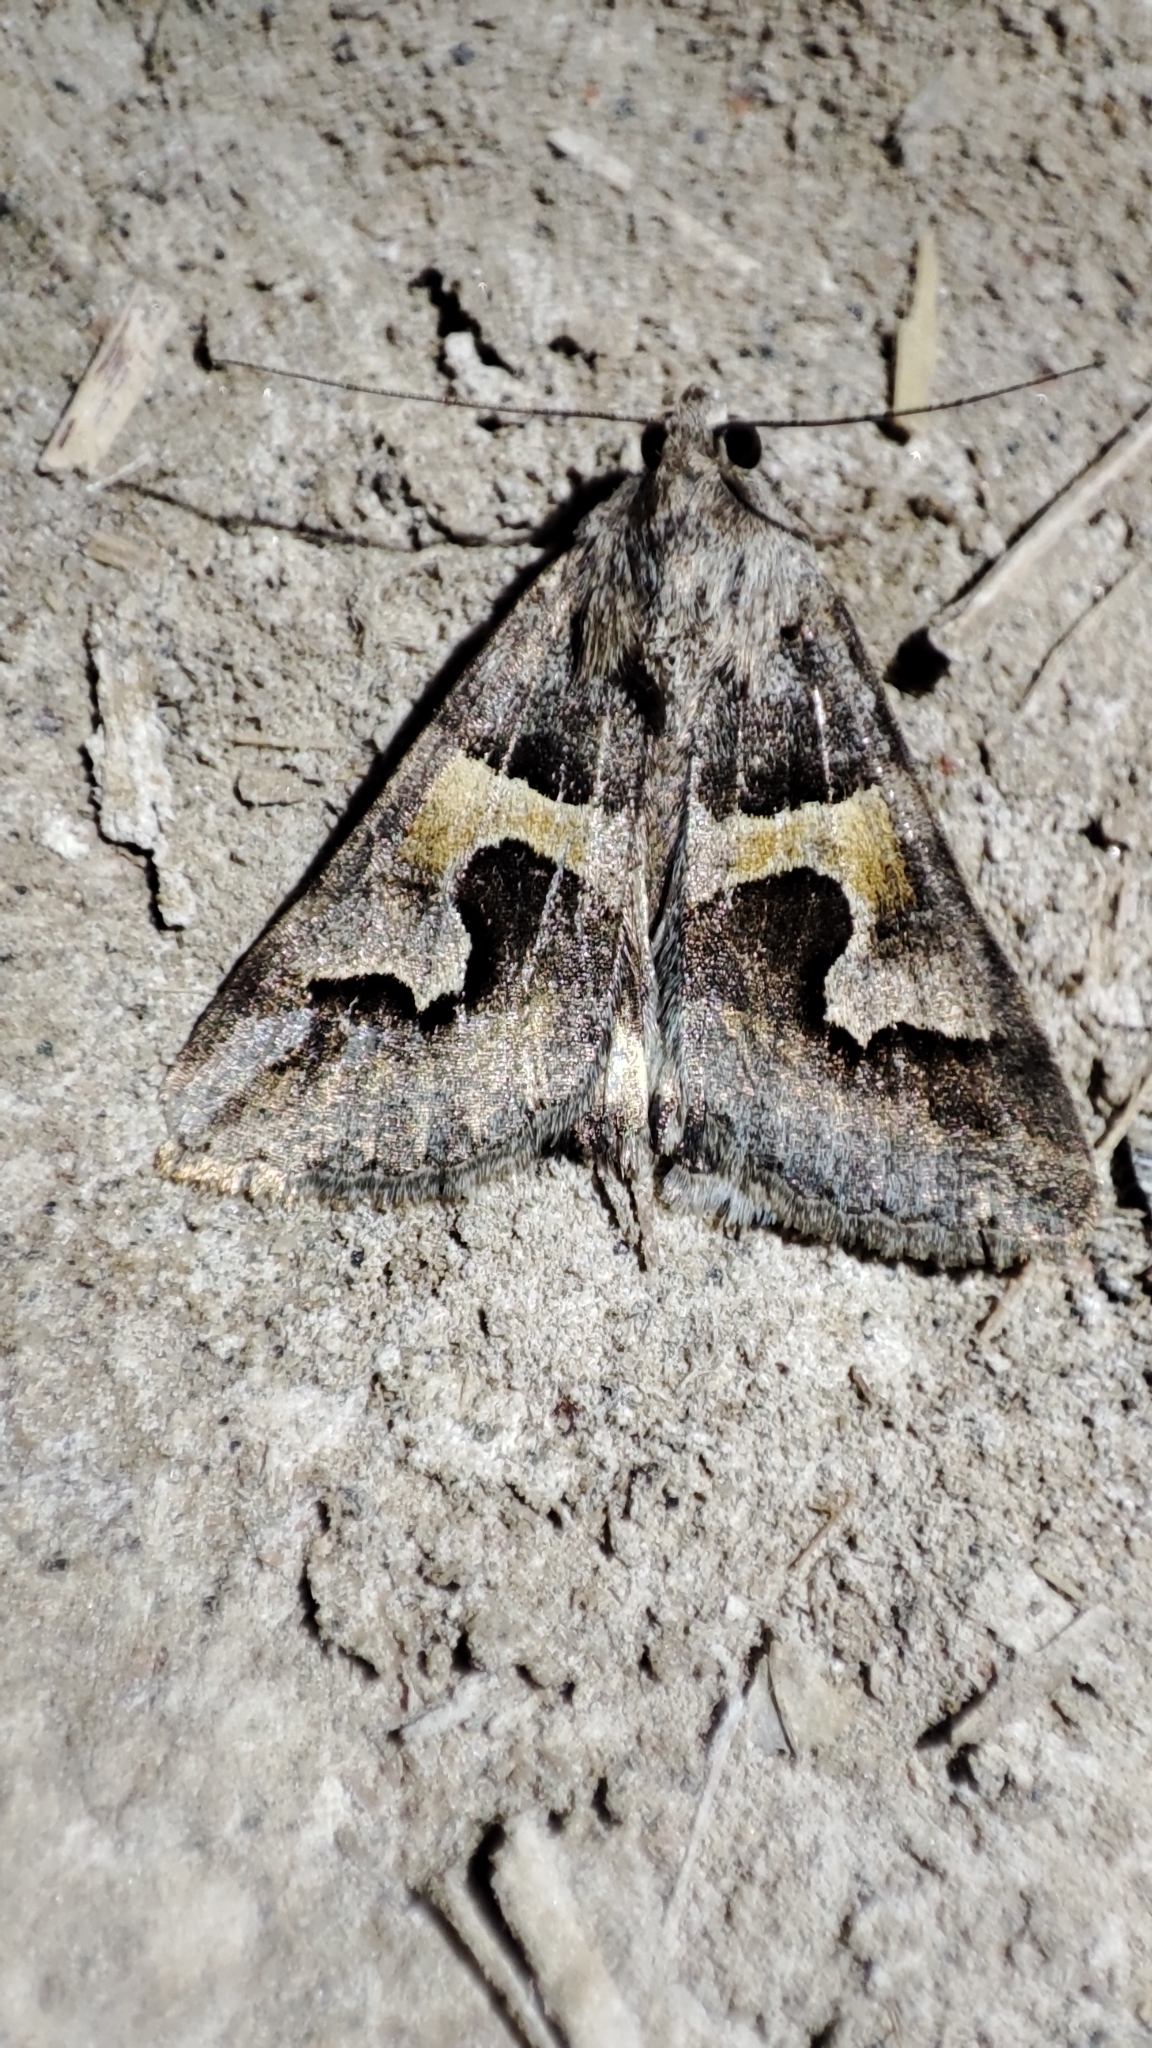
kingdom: Animalia
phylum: Arthropoda
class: Insecta
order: Lepidoptera
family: Erebidae
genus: Drasteria
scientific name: Drasteria caucasica
